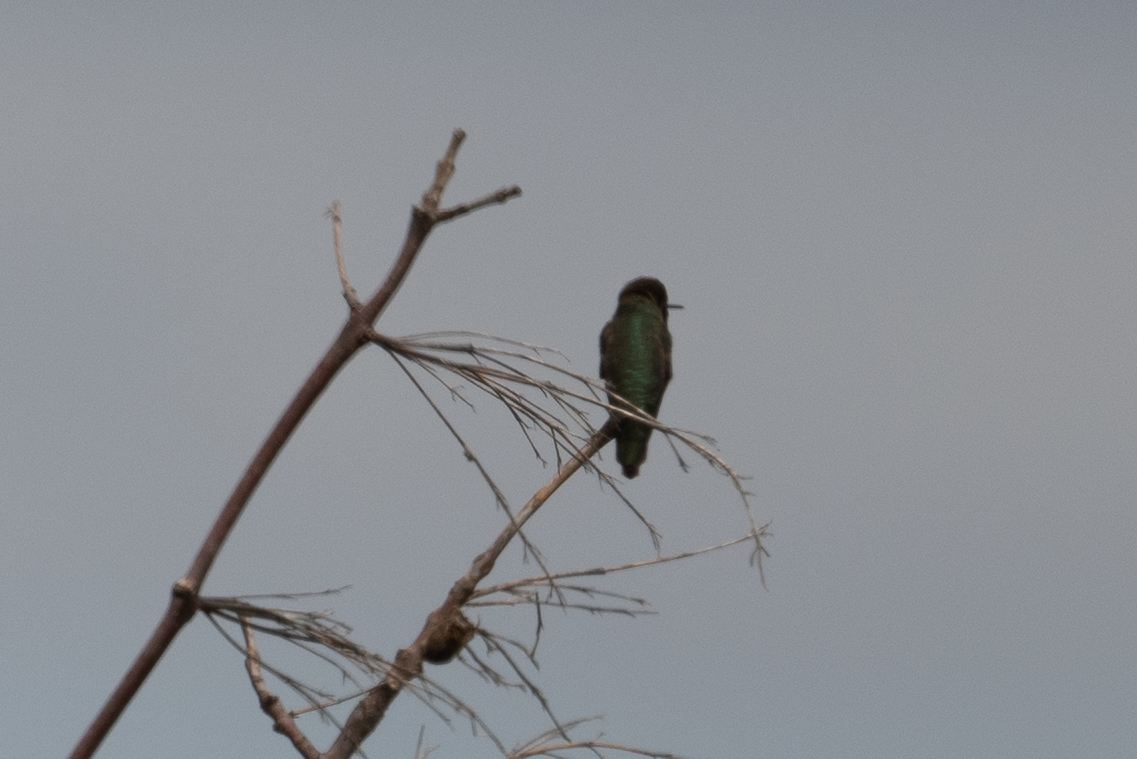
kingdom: Animalia
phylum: Chordata
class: Aves
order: Apodiformes
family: Trochilidae
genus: Calypte
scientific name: Calypte anna
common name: Anna's hummingbird
